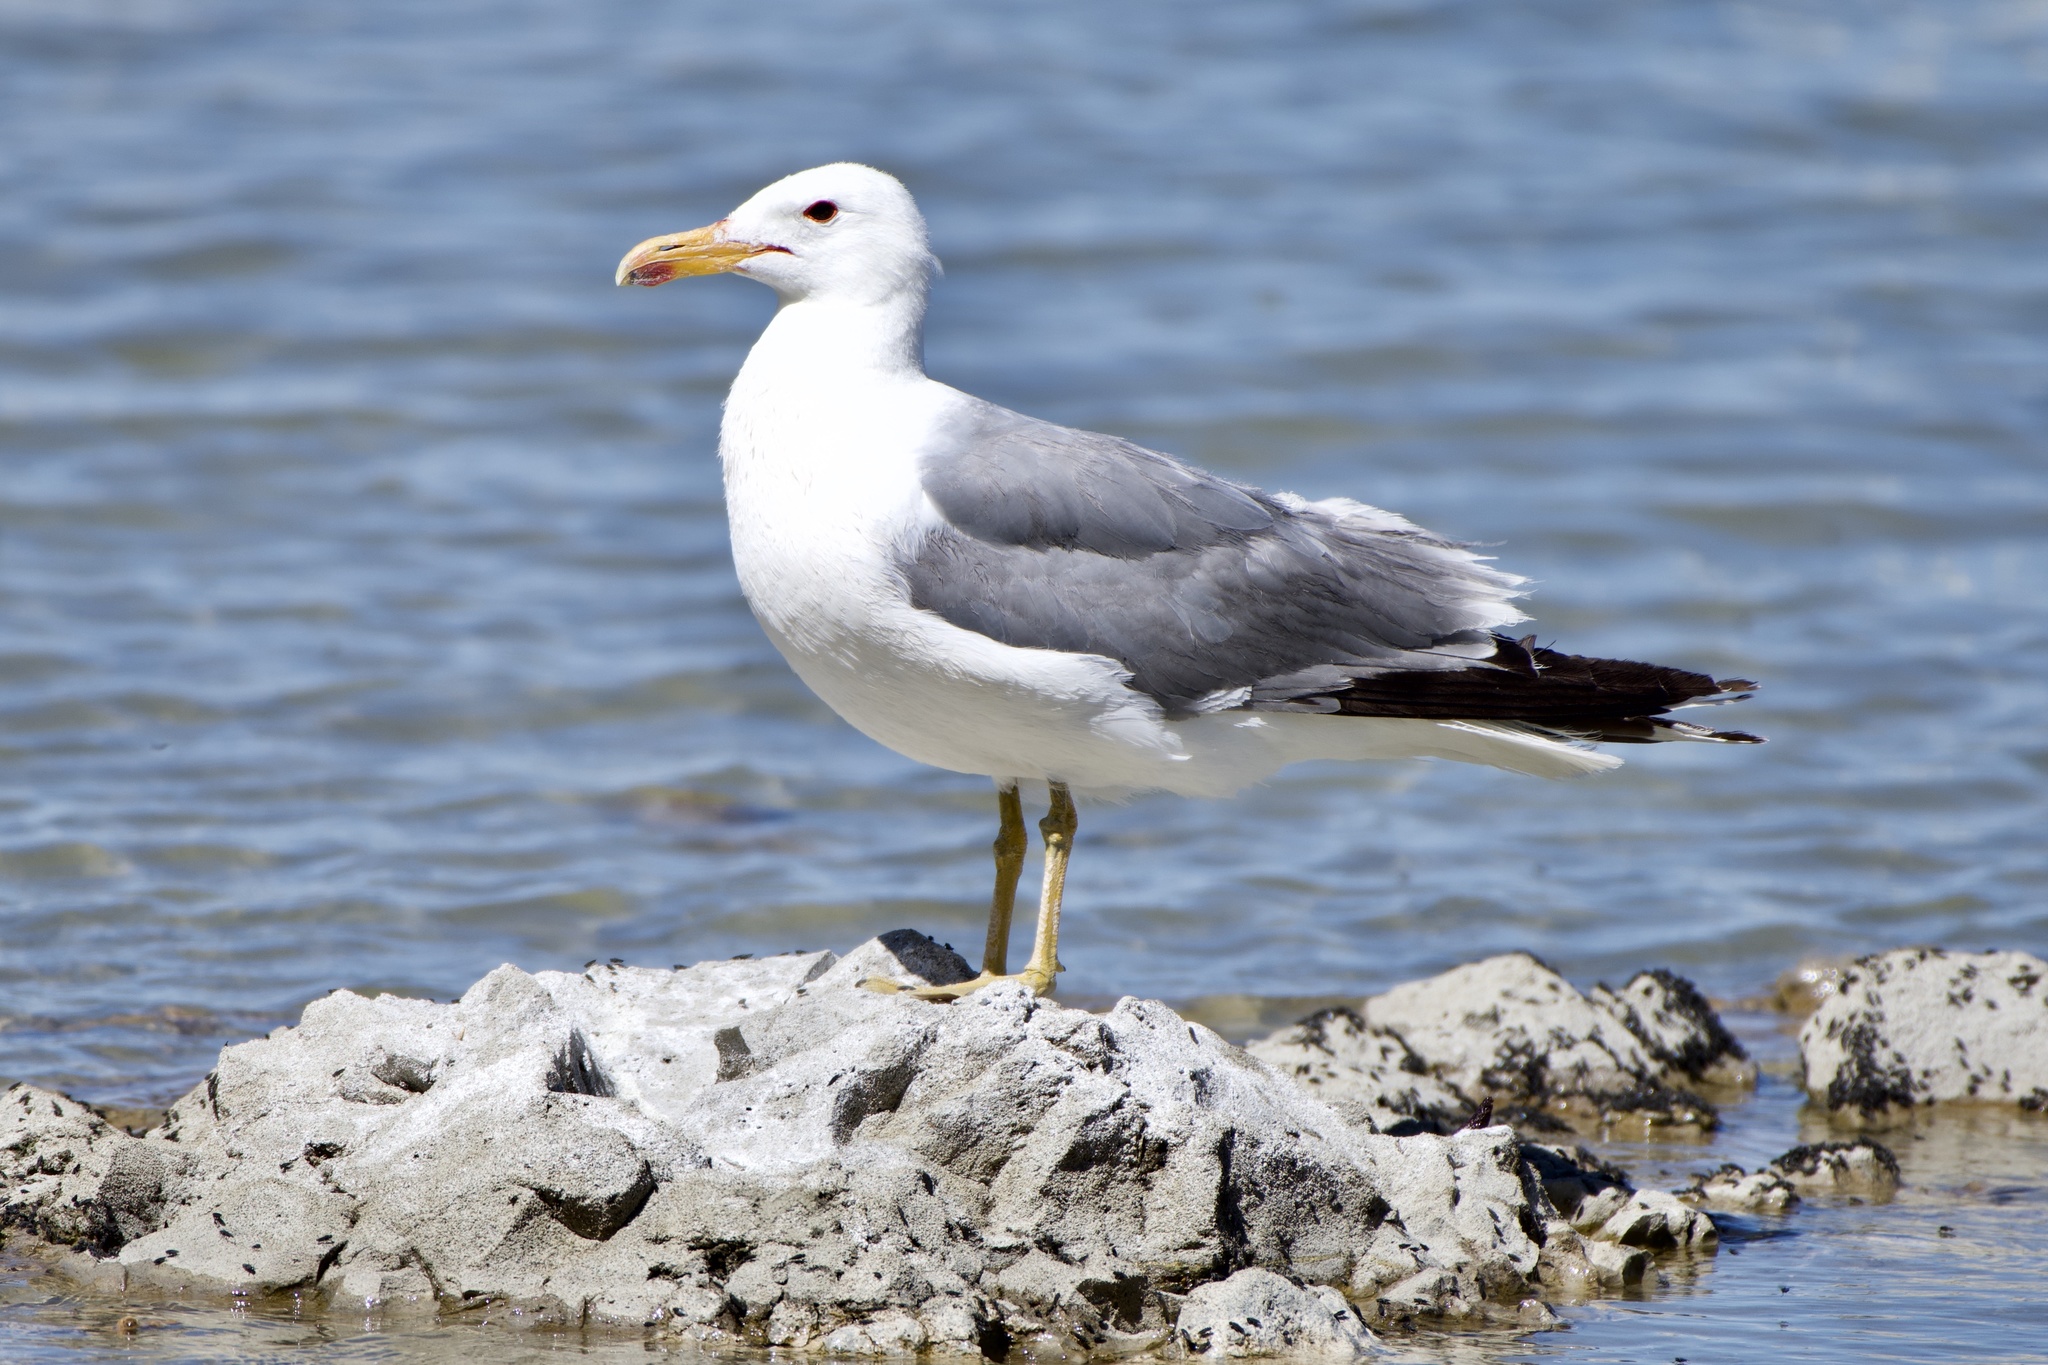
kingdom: Animalia
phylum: Chordata
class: Aves
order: Charadriiformes
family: Laridae
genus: Larus
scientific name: Larus californicus
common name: California gull
